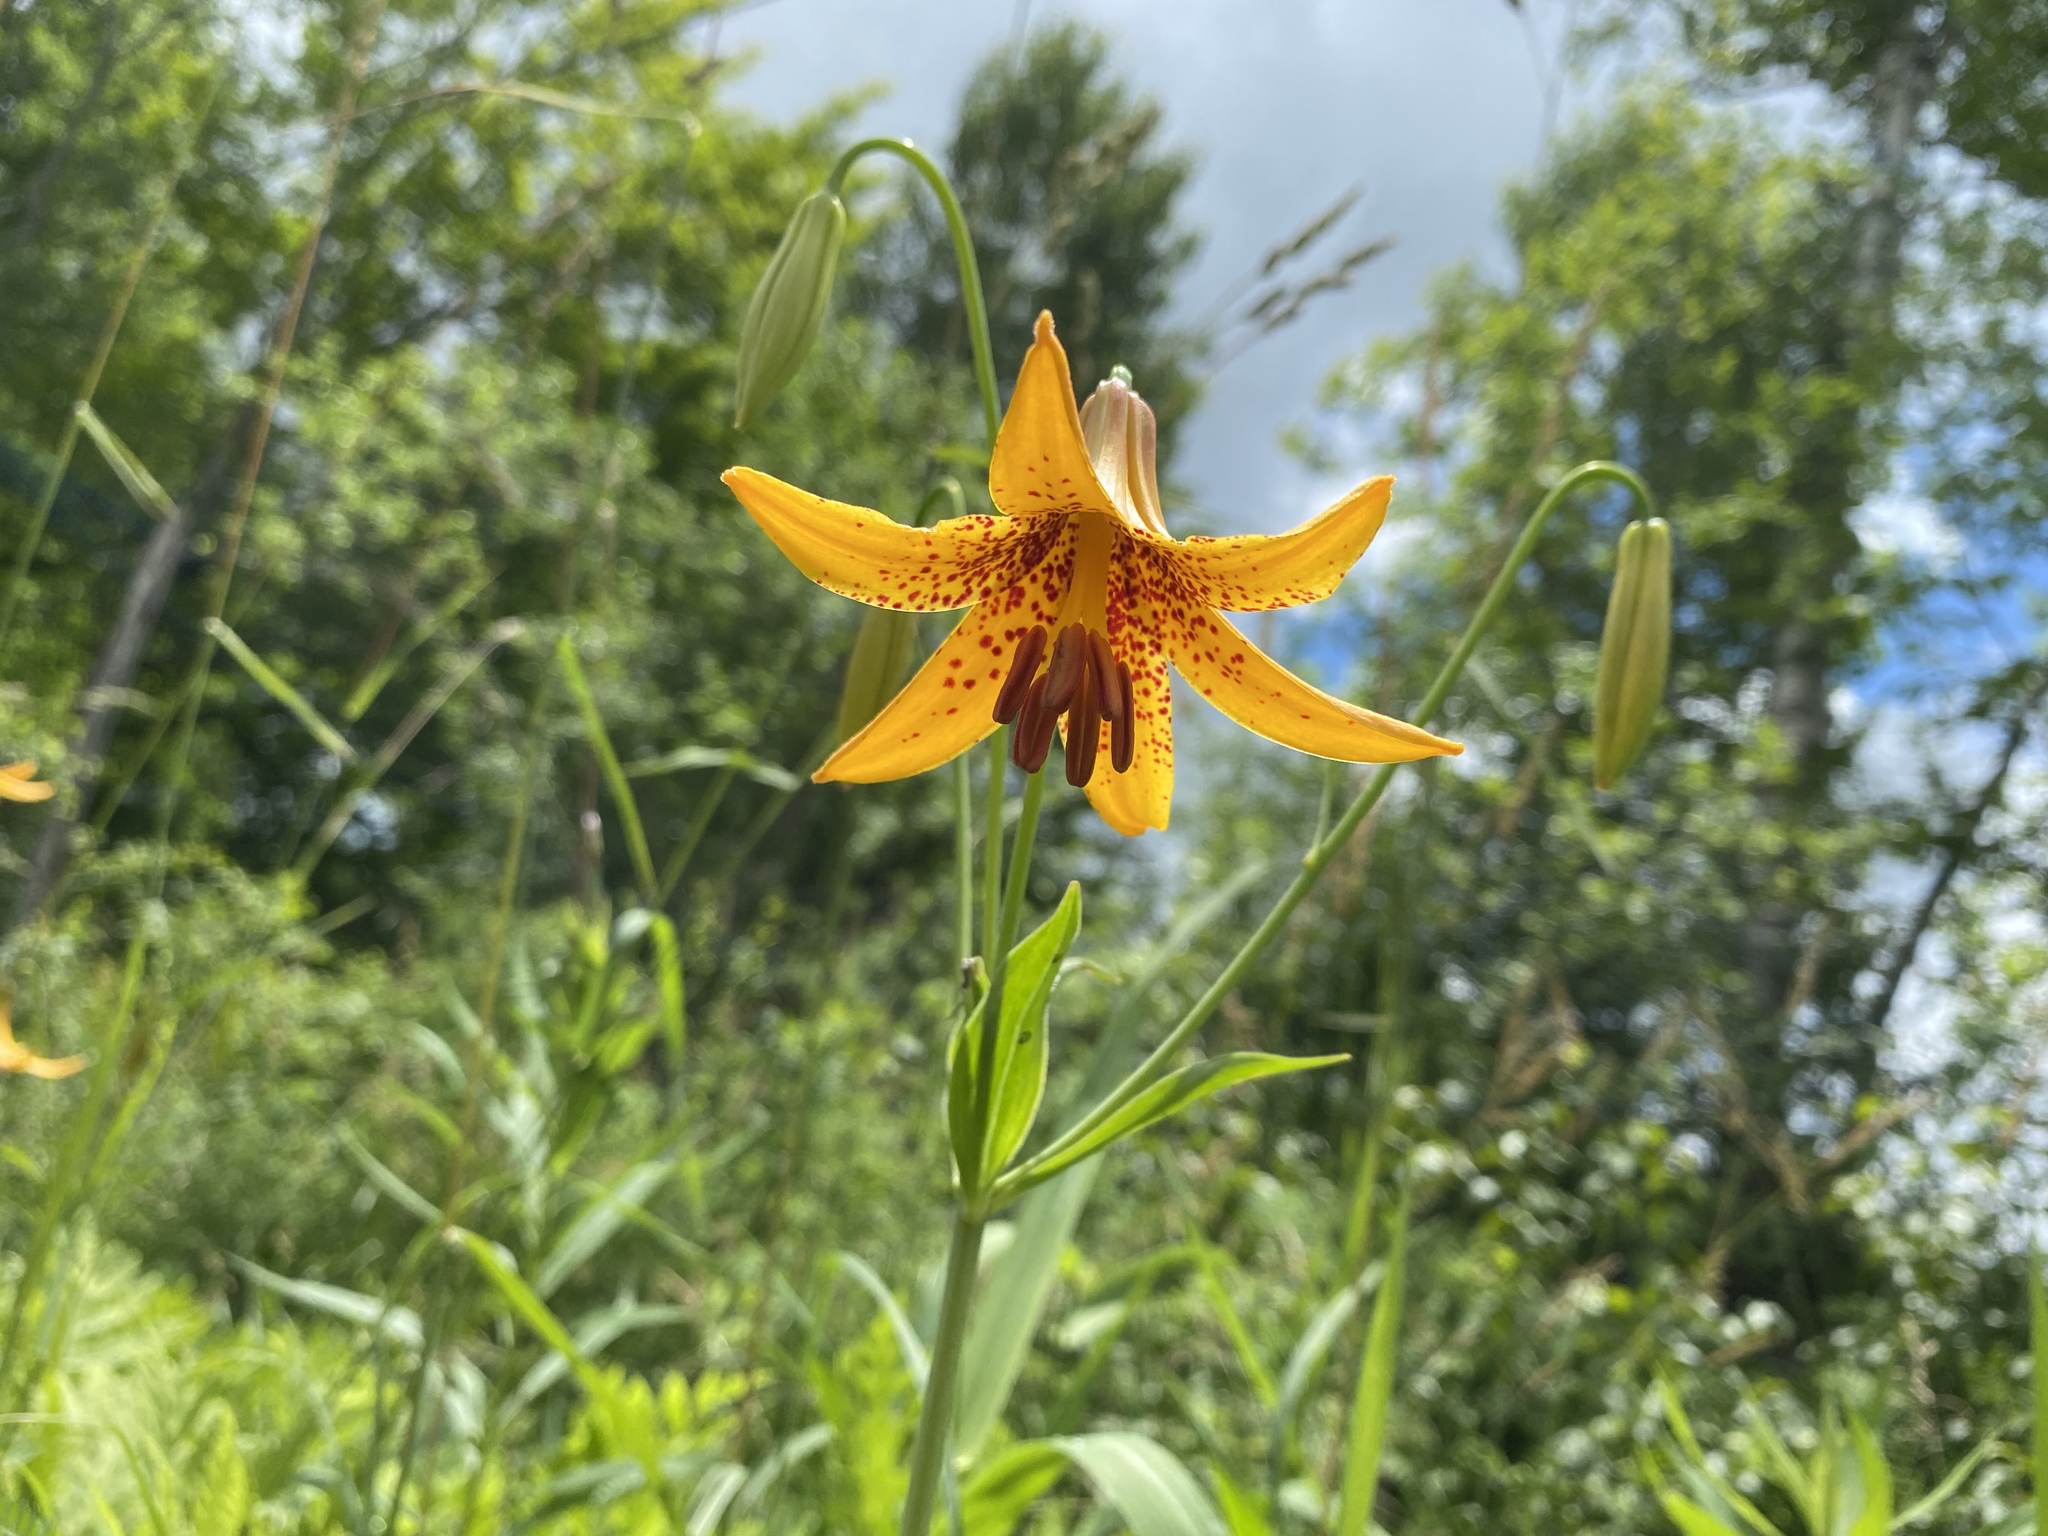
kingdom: Plantae
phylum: Tracheophyta
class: Liliopsida
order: Liliales
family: Liliaceae
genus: Lilium
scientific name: Lilium canadense
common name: Canada lily
